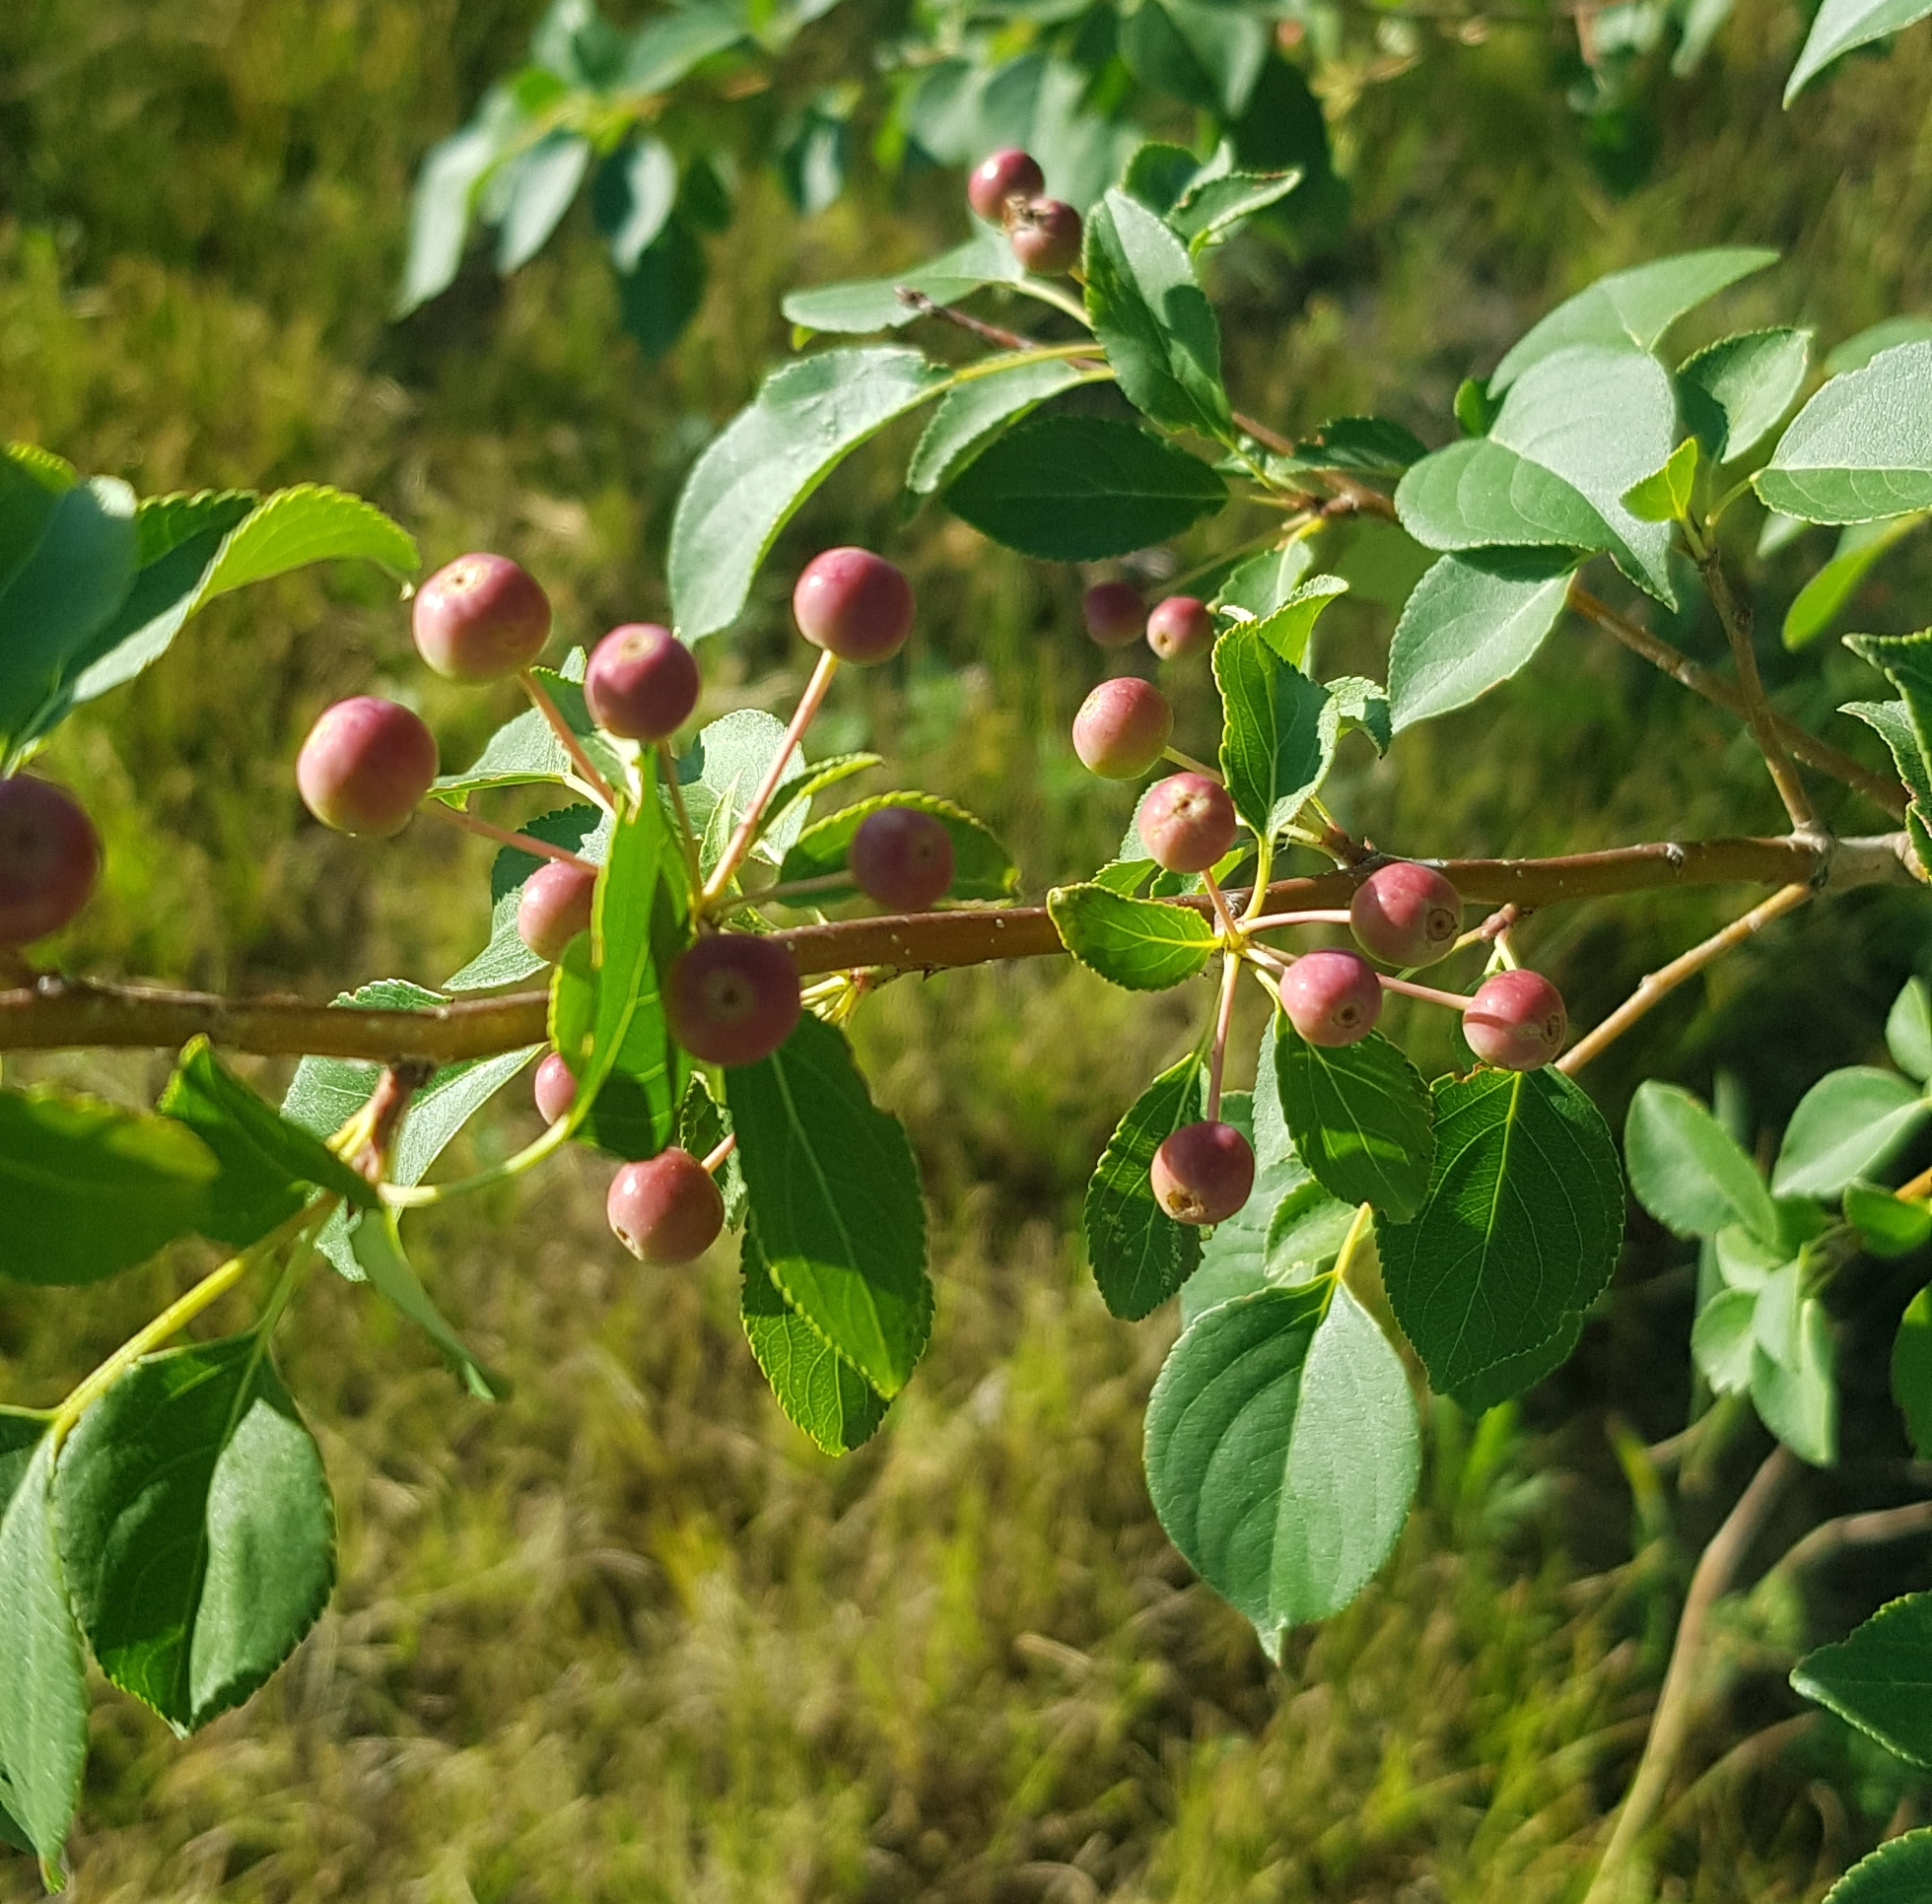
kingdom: Plantae
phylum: Tracheophyta
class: Magnoliopsida
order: Rosales
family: Rosaceae
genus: Malus
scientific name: Malus baccata
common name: Siberian crab
